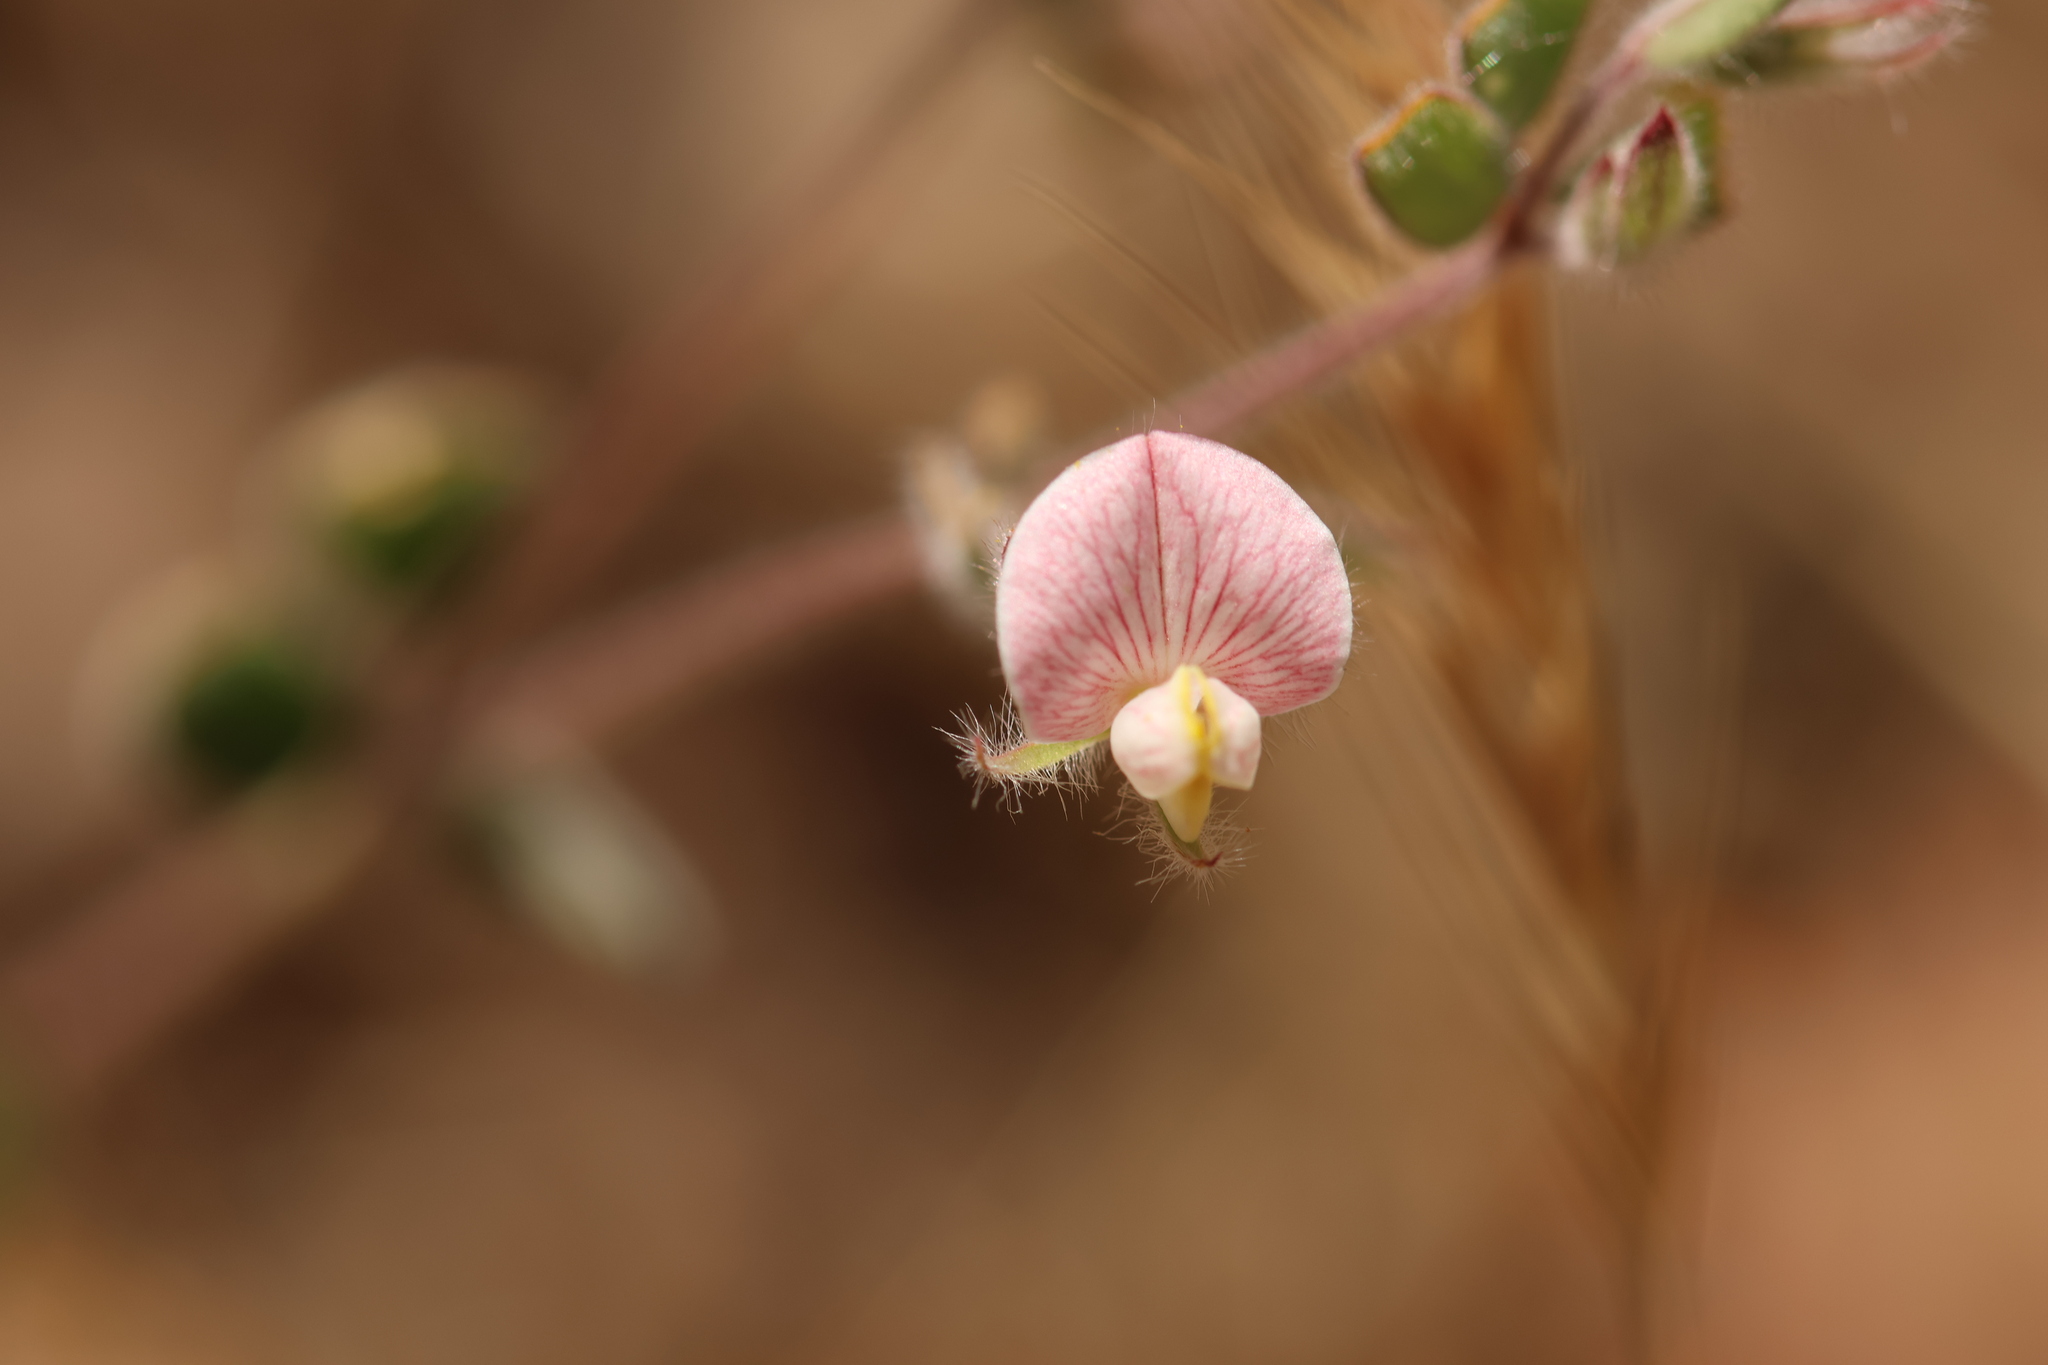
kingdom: Plantae
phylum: Tracheophyta
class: Magnoliopsida
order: Fabales
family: Fabaceae
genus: Acmispon
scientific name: Acmispon americanus
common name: American bird's-foot trefoil
